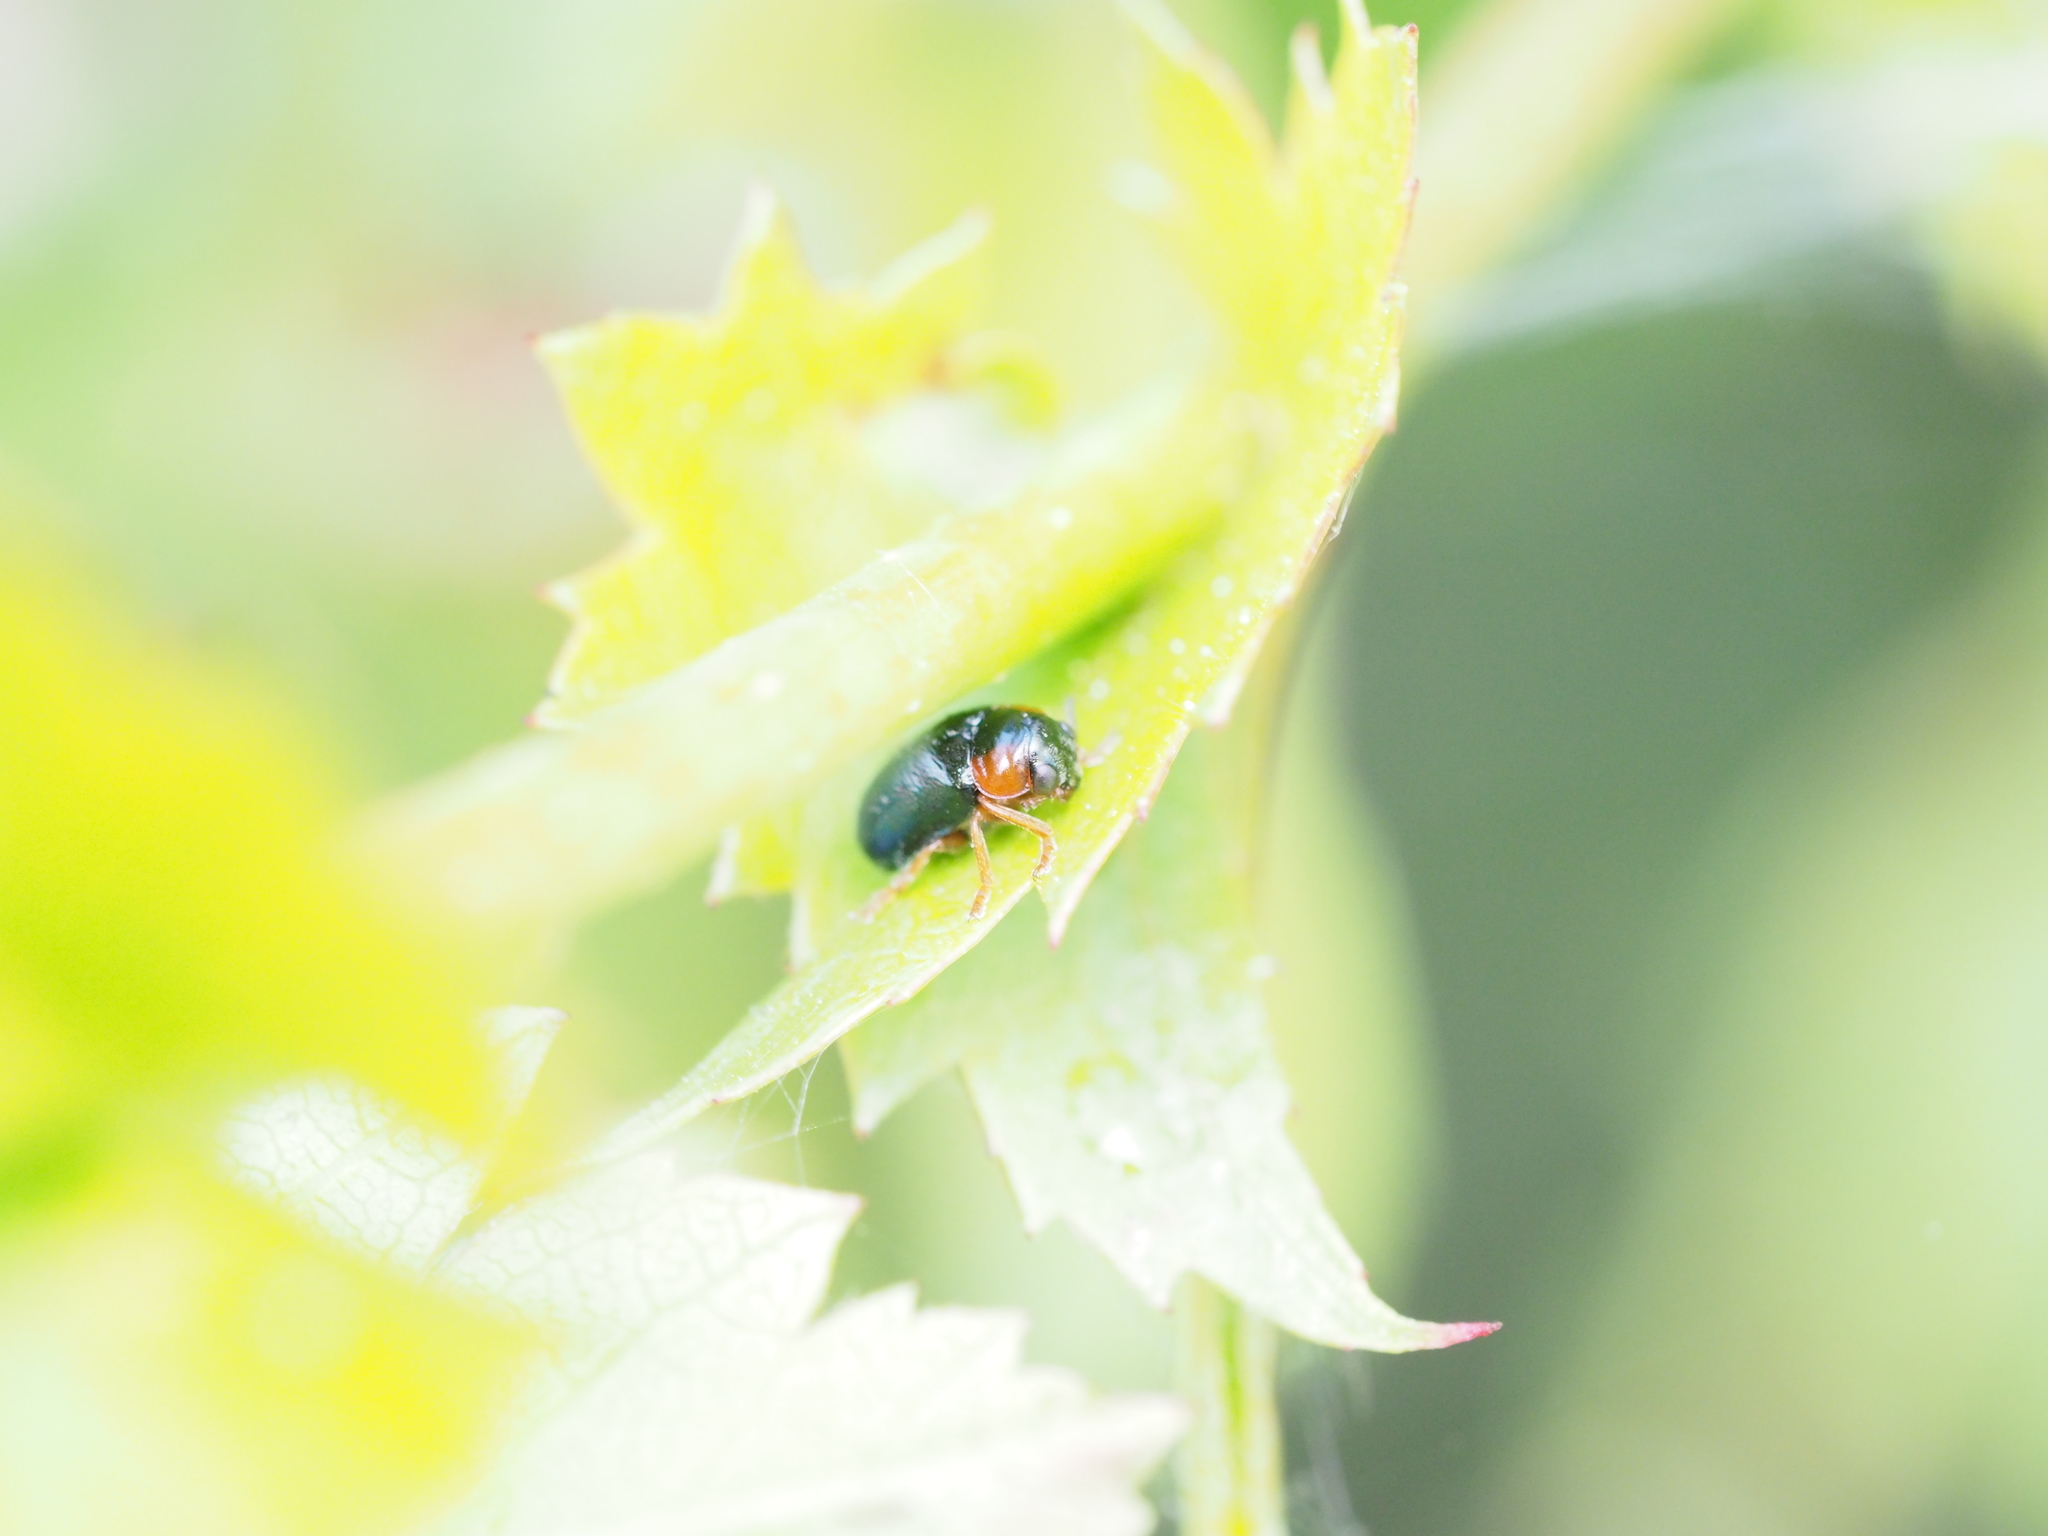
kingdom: Animalia
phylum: Arthropoda
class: Insecta
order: Coleoptera
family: Chrysomelidae
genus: Smaragdina
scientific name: Smaragdina aurita
